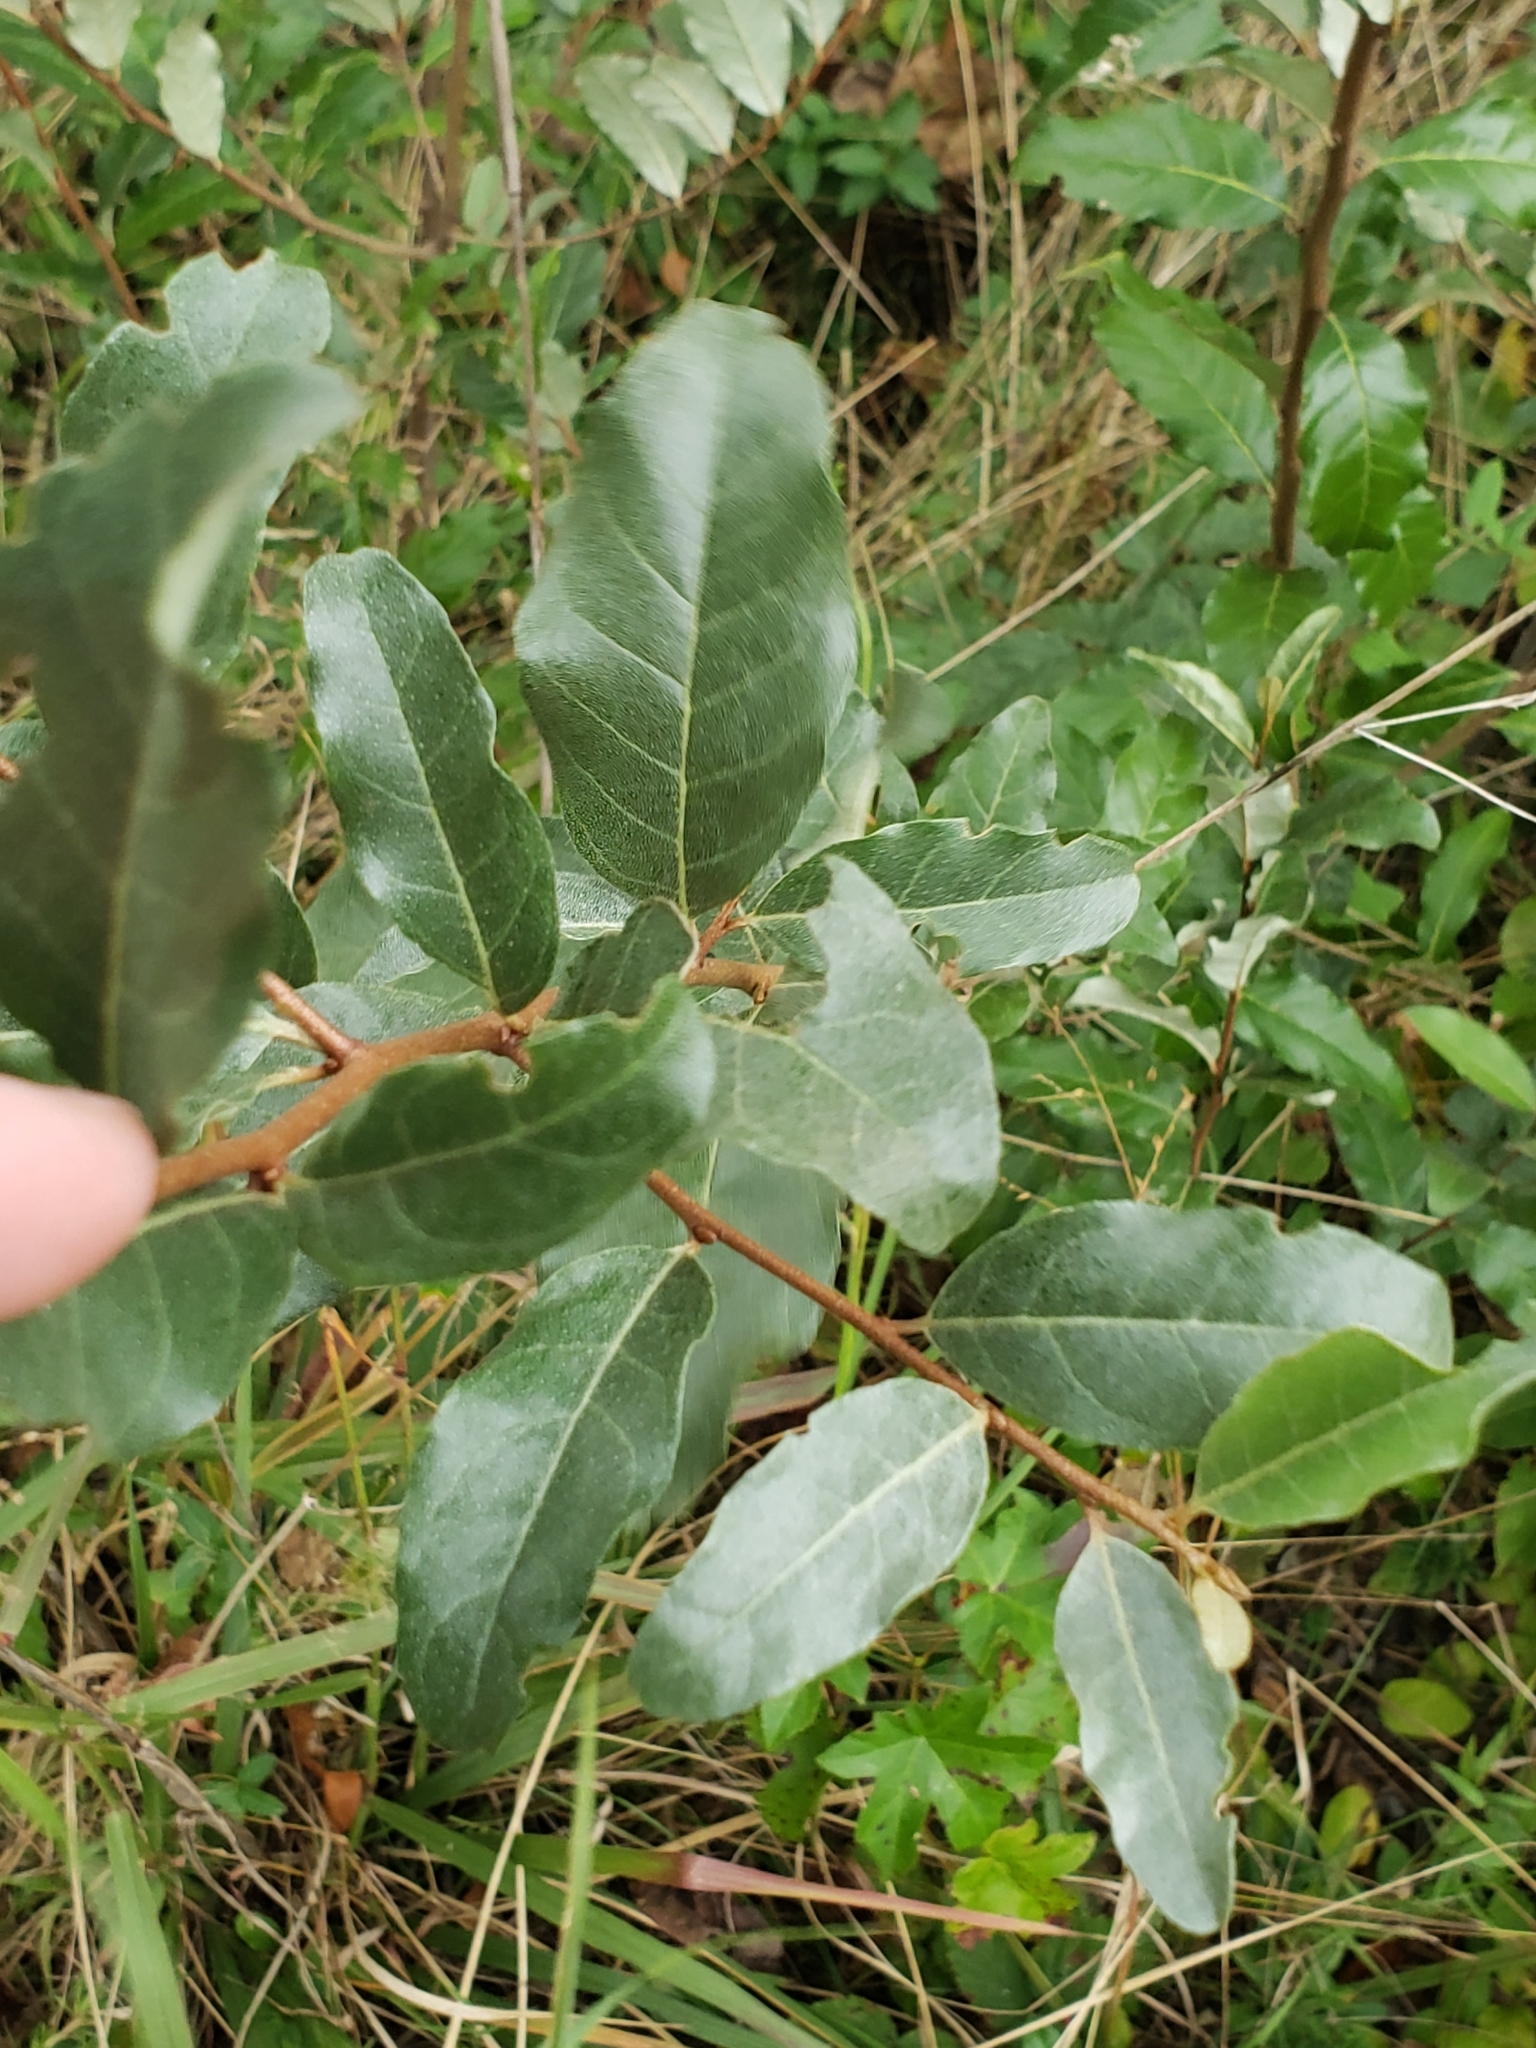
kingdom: Plantae
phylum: Tracheophyta
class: Magnoliopsida
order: Rosales
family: Elaeagnaceae
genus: Elaeagnus
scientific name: Elaeagnus umbellata
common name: Autumn olive
